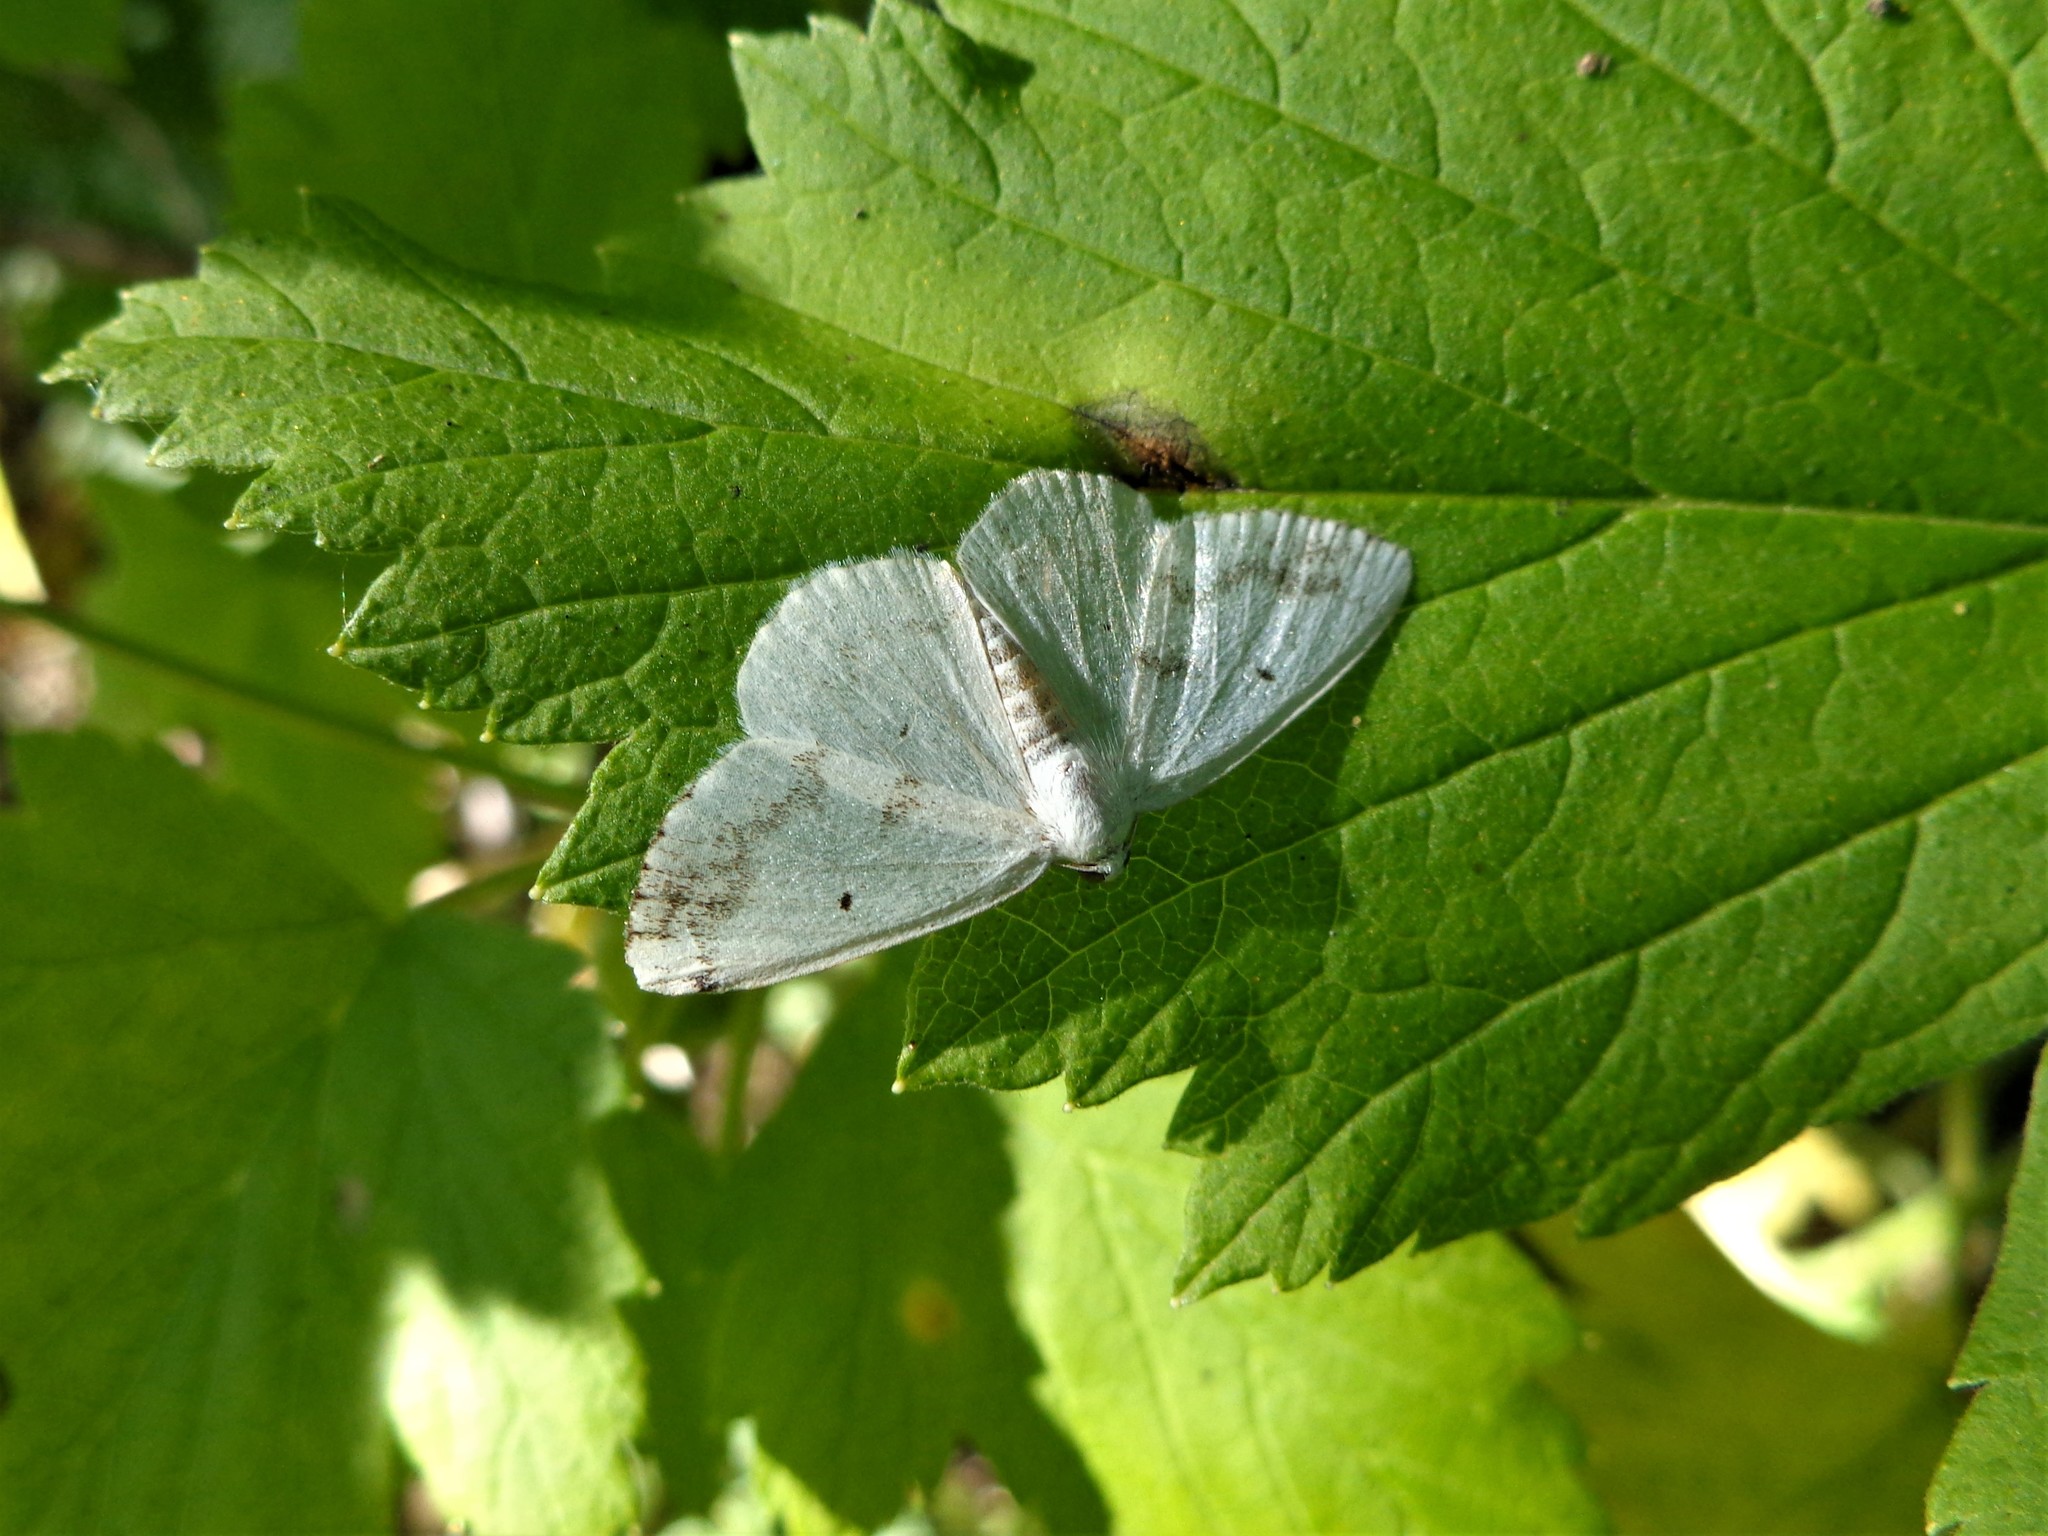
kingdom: Animalia
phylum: Arthropoda
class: Insecta
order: Lepidoptera
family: Geometridae
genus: Lomographa
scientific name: Lomographa temerata
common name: Clouded silver
